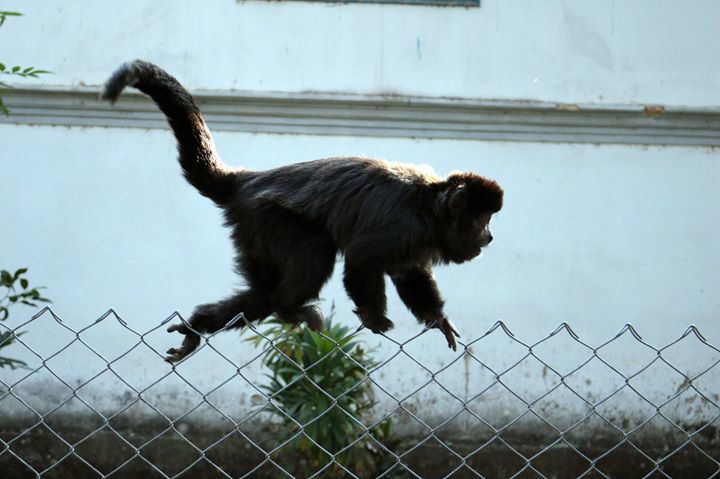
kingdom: Animalia
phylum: Chordata
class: Mammalia
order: Primates
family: Cebidae
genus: Sapajus
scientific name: Sapajus nigritus
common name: Black capuchin
